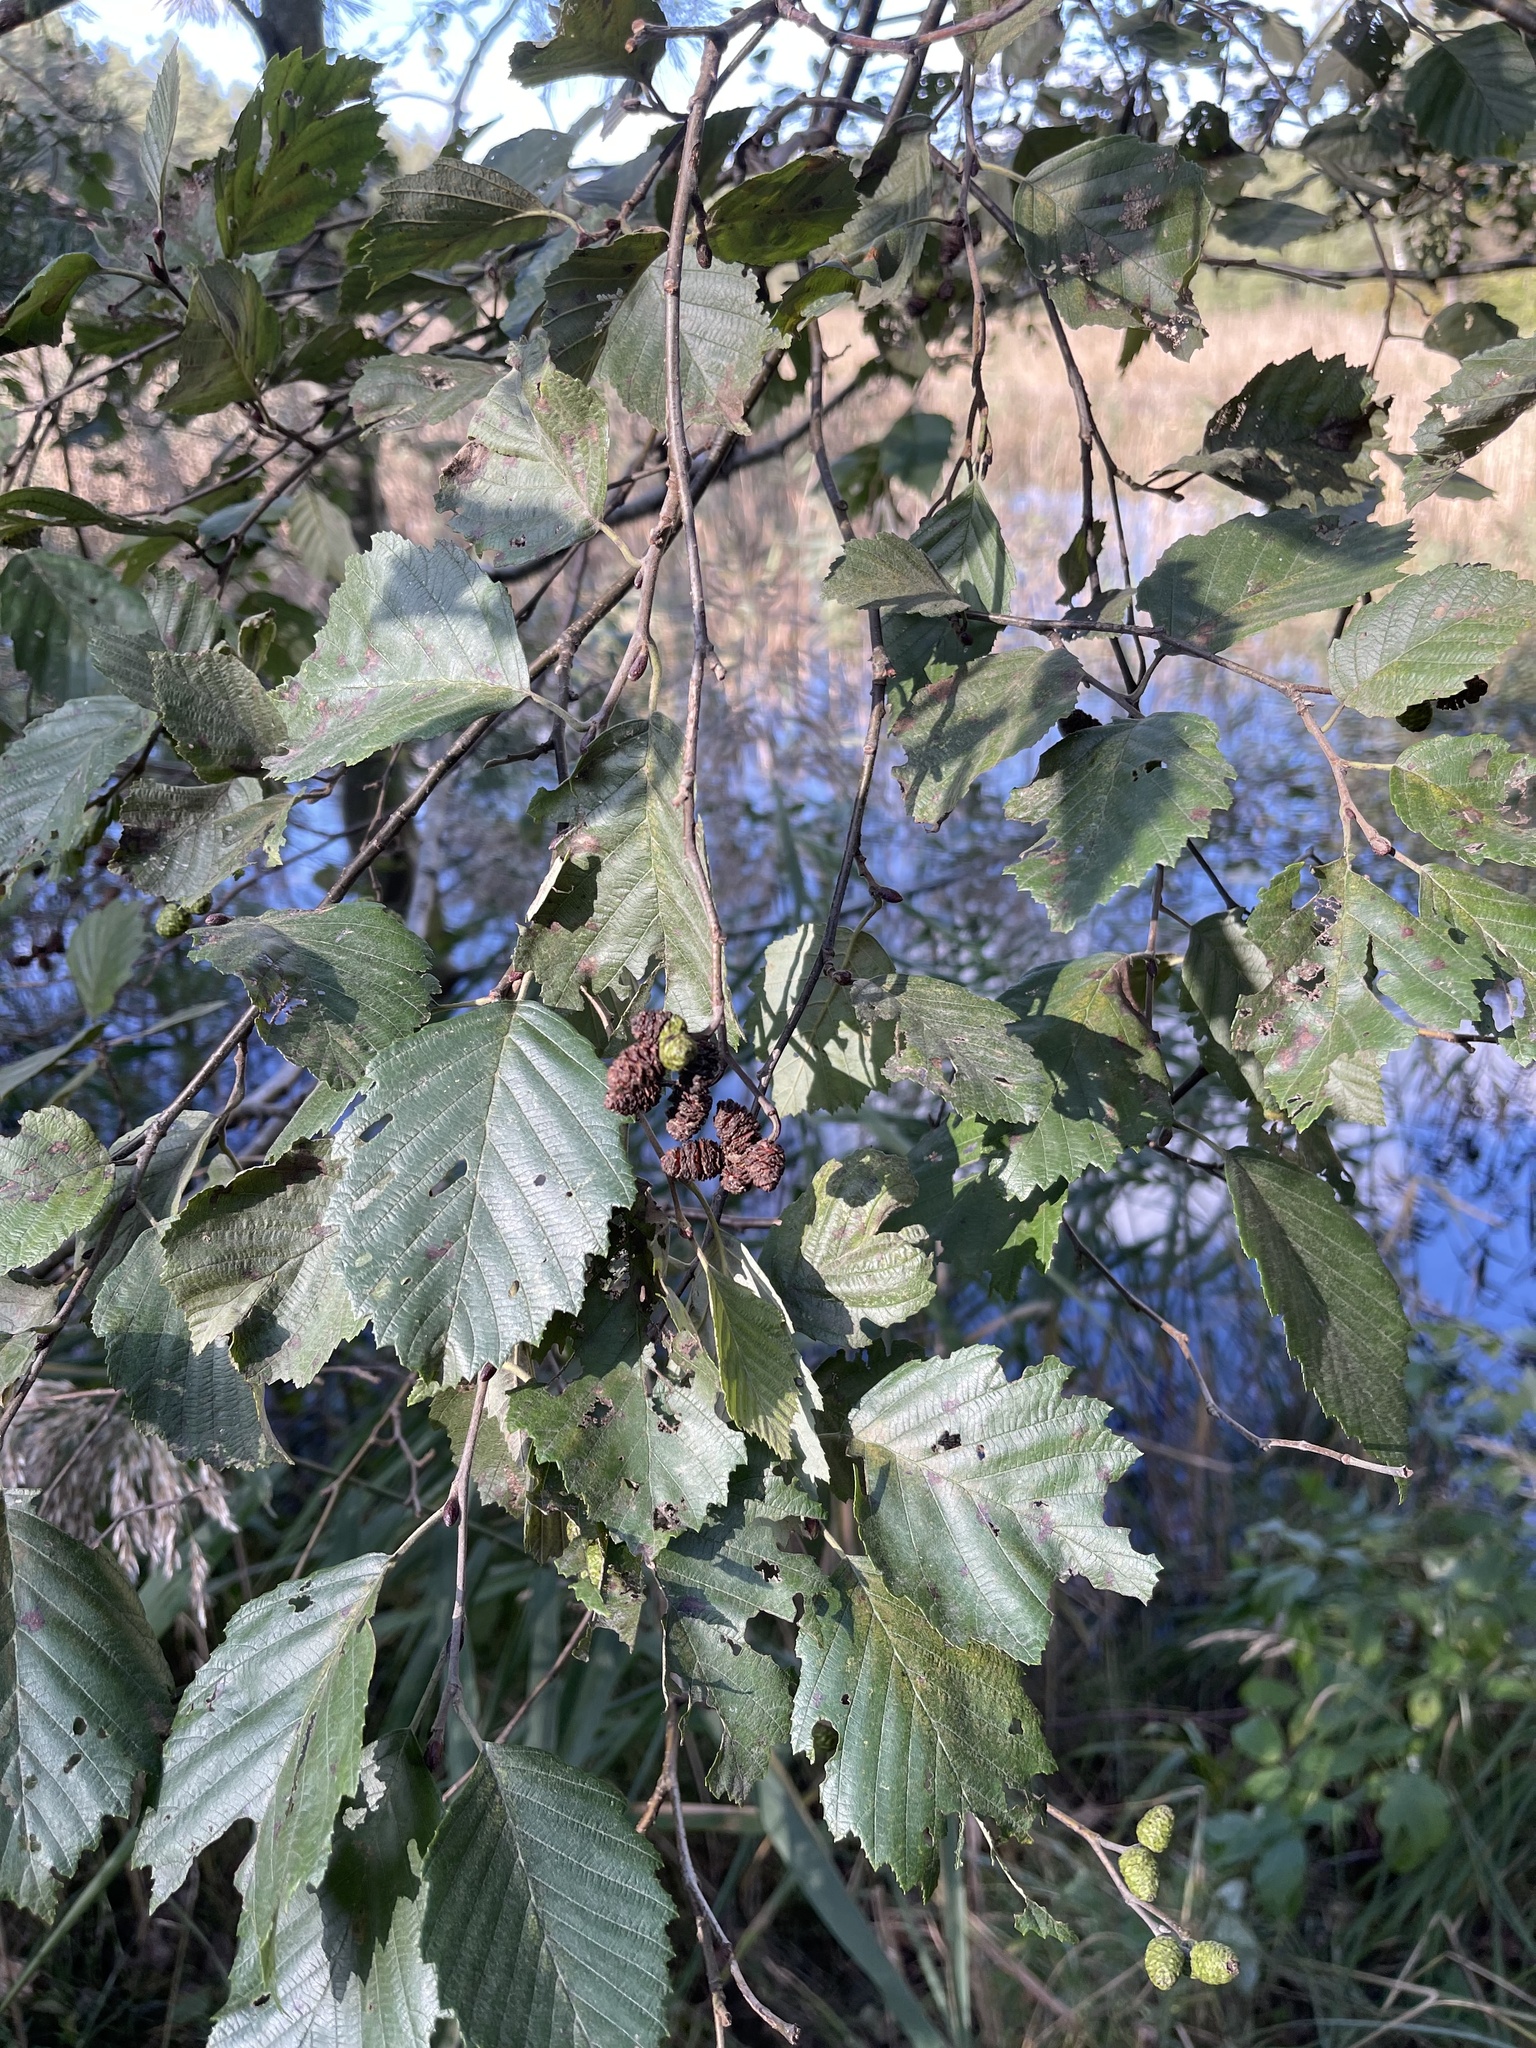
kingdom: Plantae
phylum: Tracheophyta
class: Magnoliopsida
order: Fagales
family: Betulaceae
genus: Alnus
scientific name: Alnus incana
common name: Grey alder
